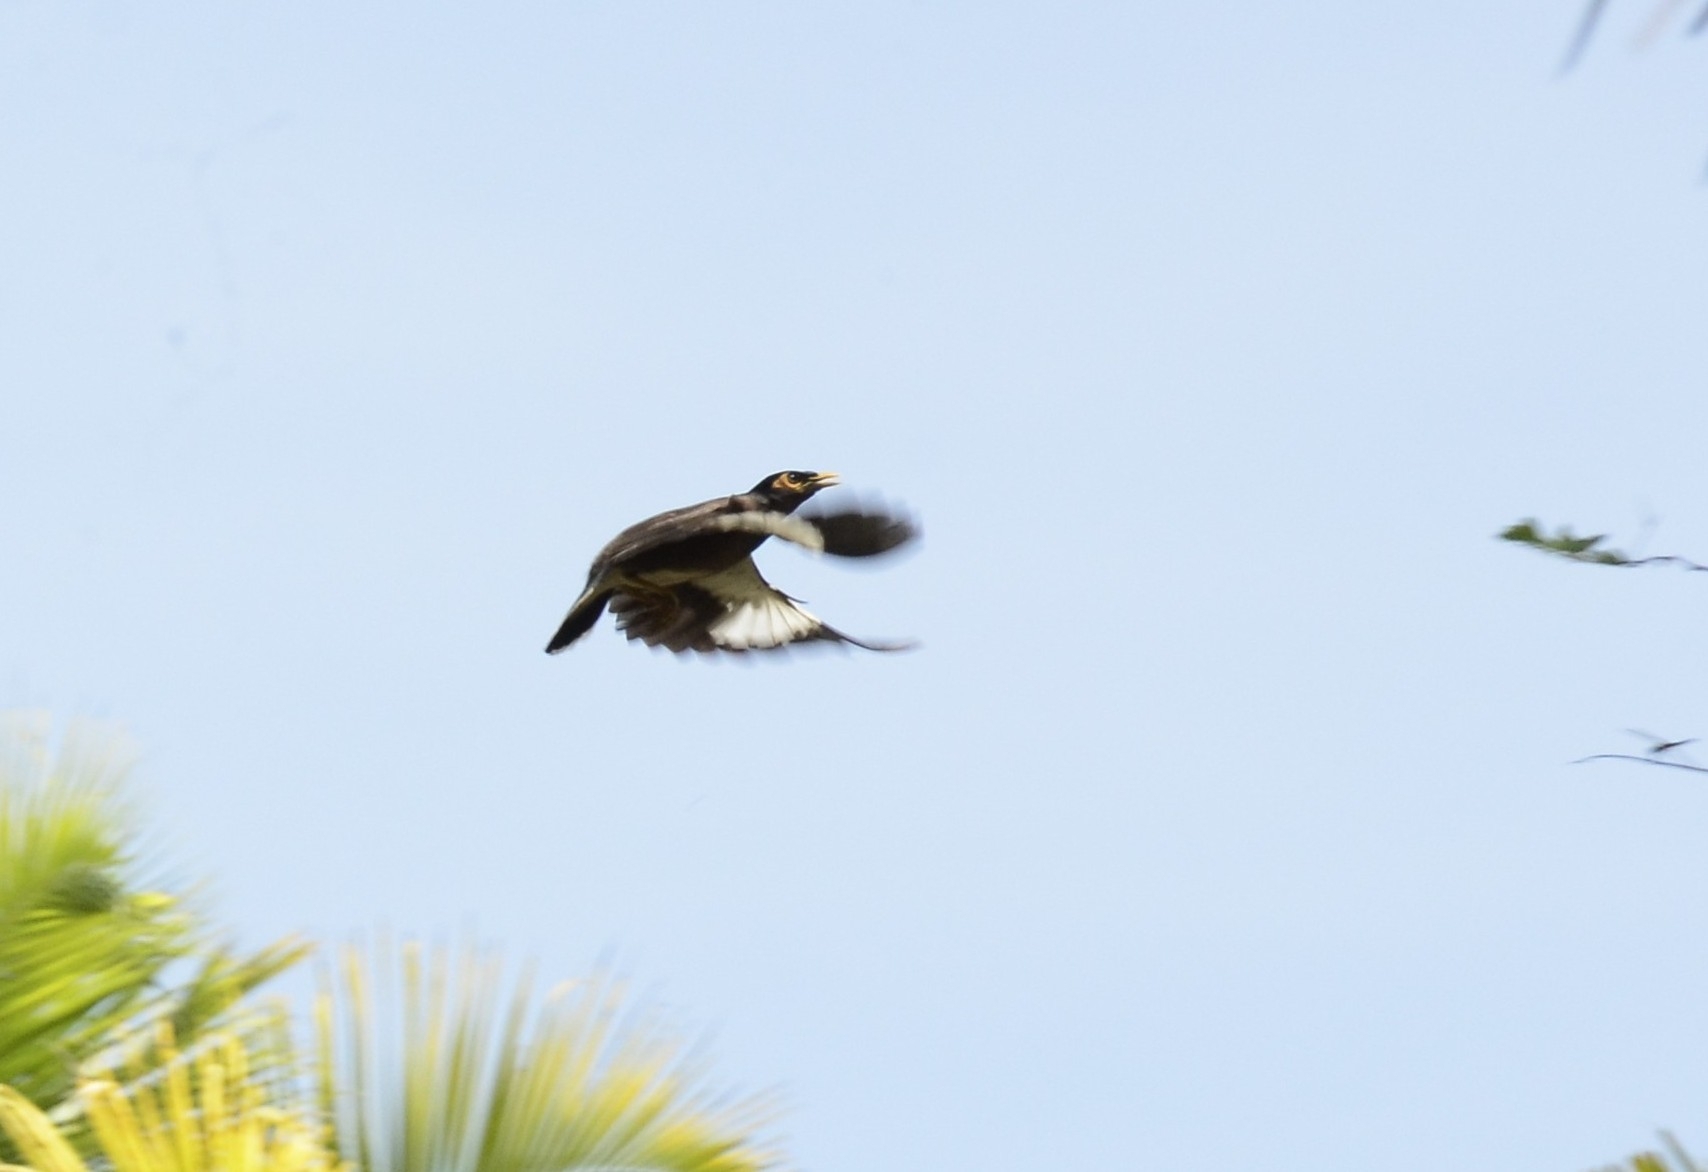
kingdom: Animalia
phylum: Chordata
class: Aves
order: Passeriformes
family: Sturnidae
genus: Acridotheres
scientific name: Acridotheres tristis
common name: Common myna
